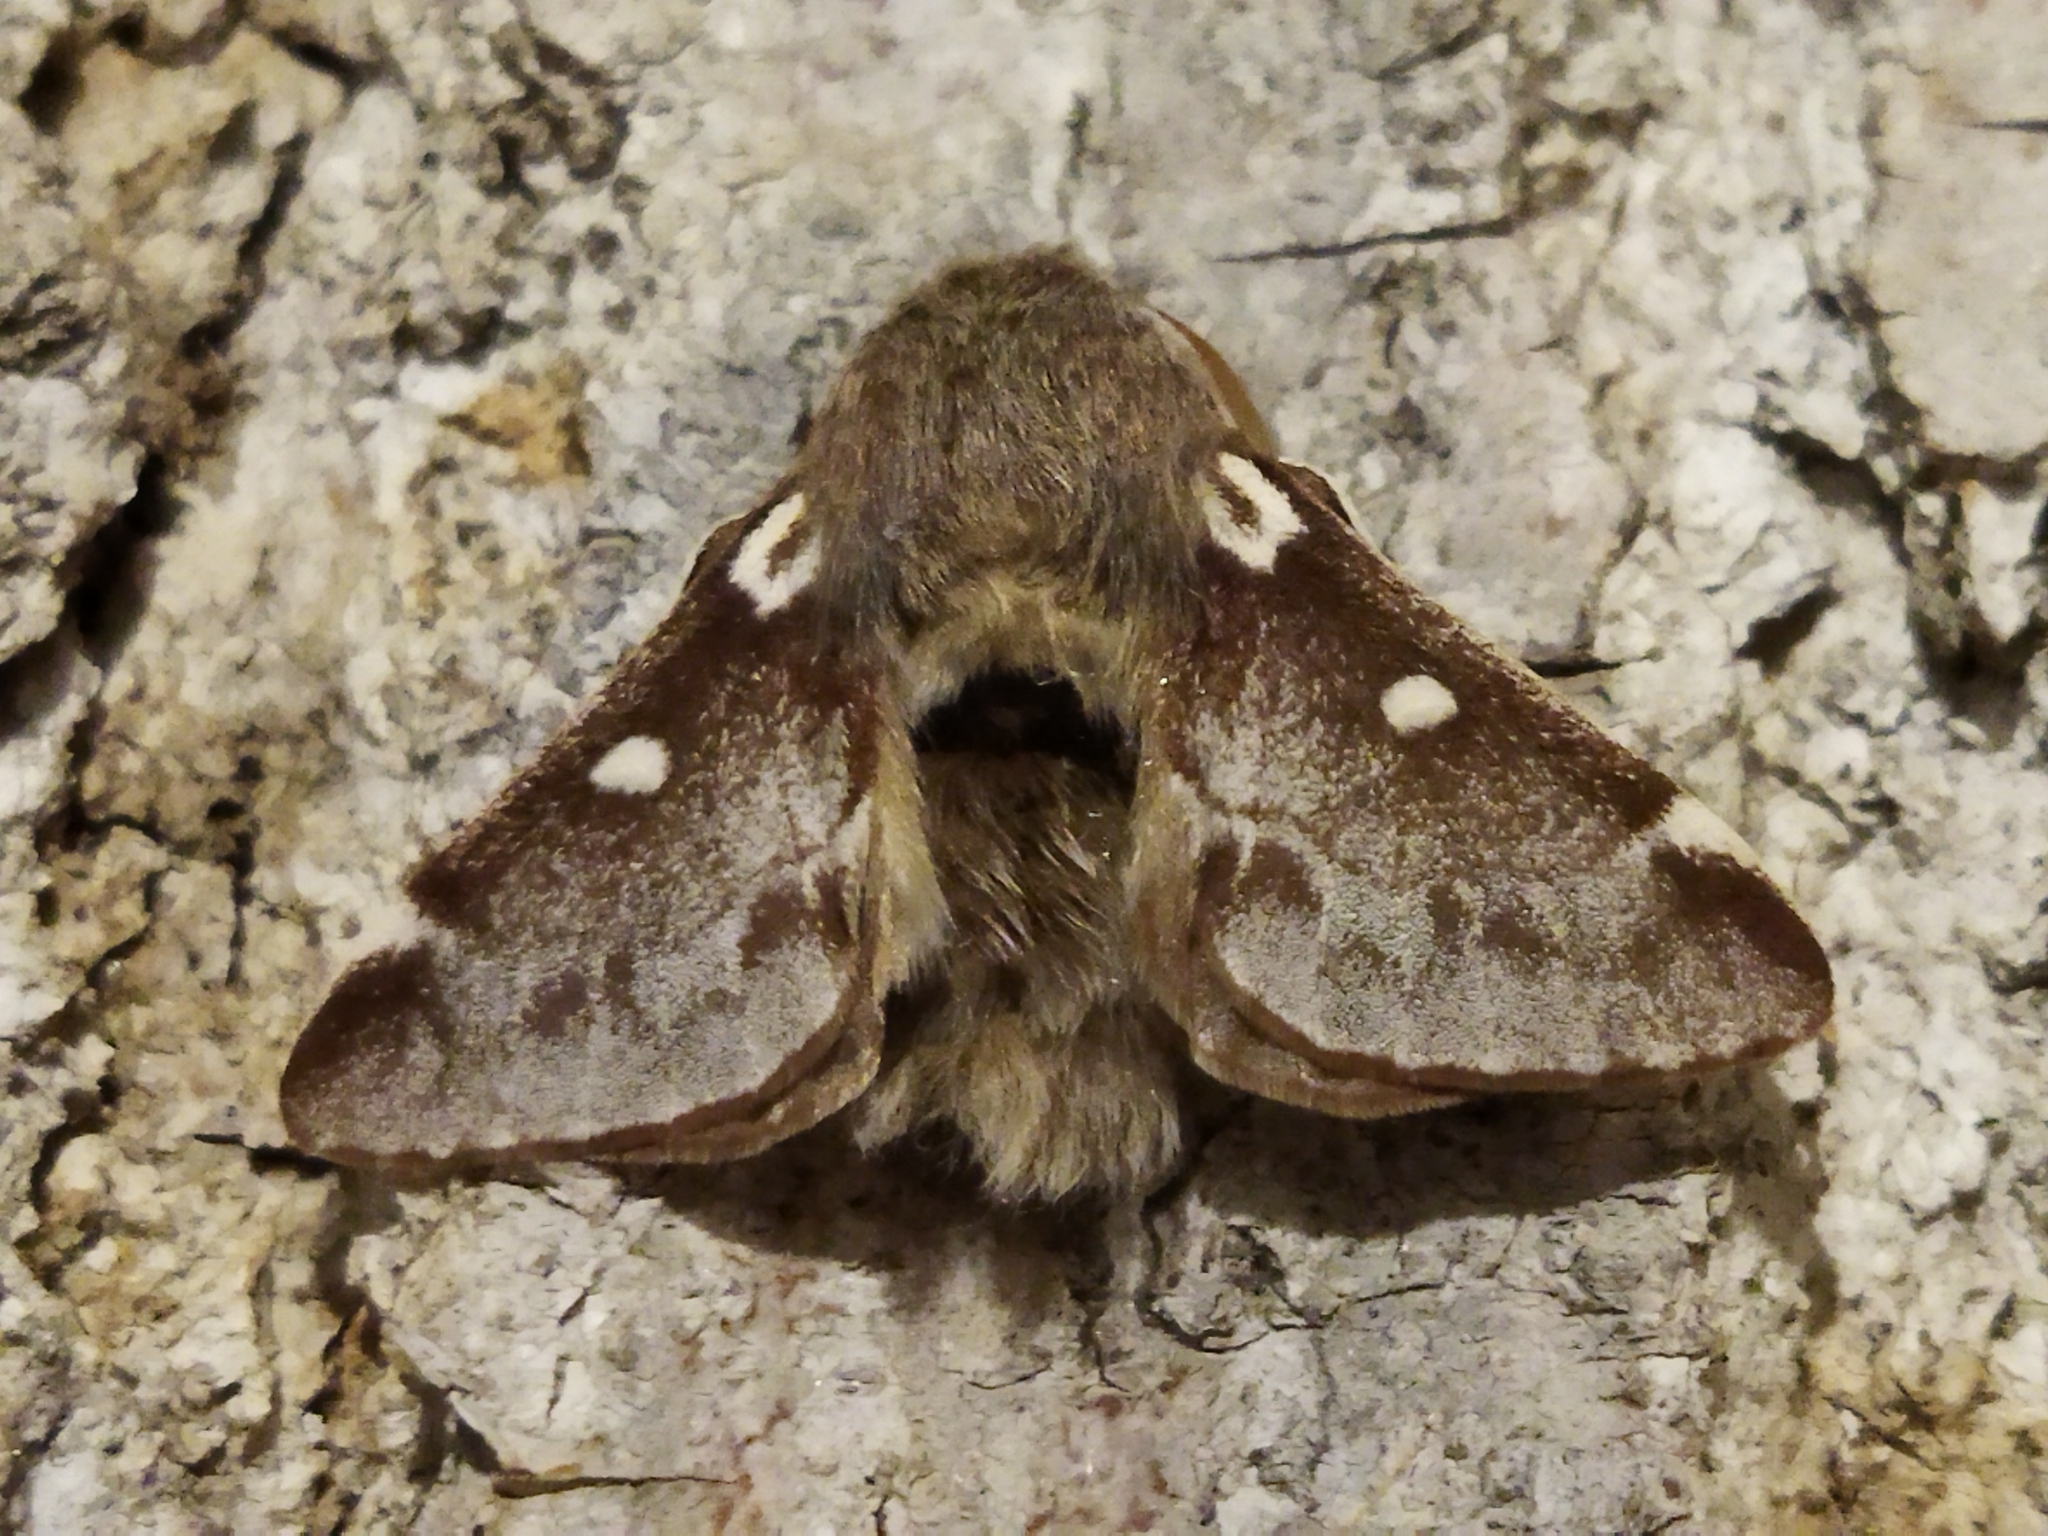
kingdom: Animalia
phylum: Arthropoda
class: Insecta
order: Lepidoptera
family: Lasiocampidae
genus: Eriogaster
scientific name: Eriogaster lanestris
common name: Small eggar
